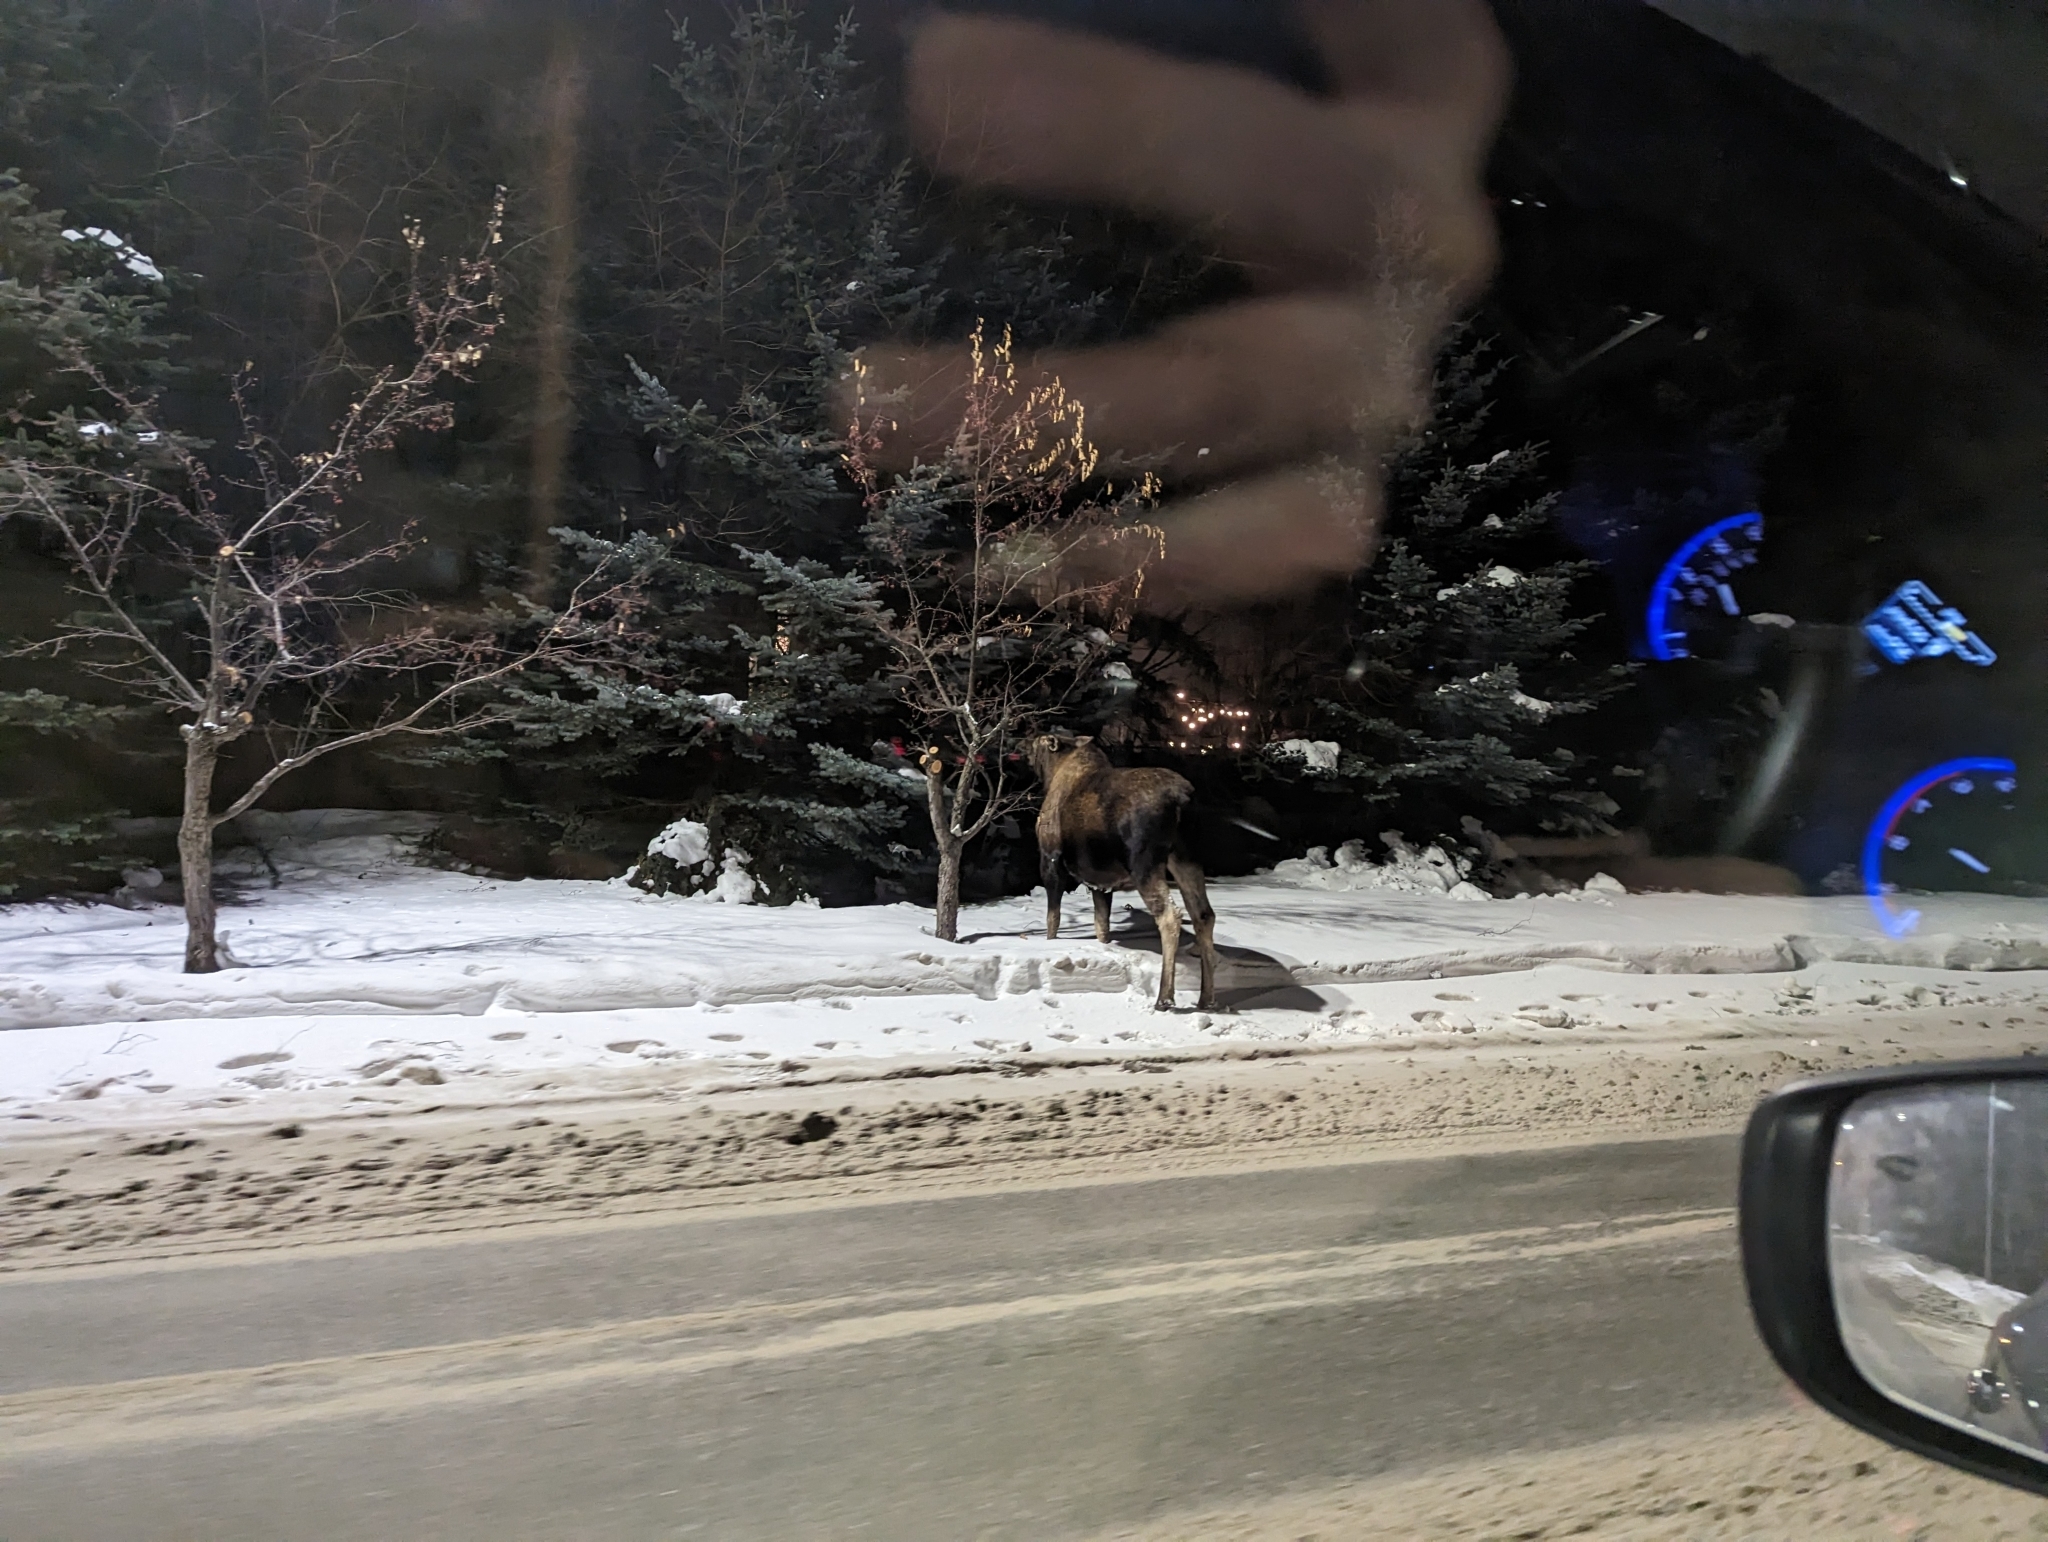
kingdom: Animalia
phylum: Chordata
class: Mammalia
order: Artiodactyla
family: Cervidae
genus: Alces
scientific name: Alces alces
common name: Moose
